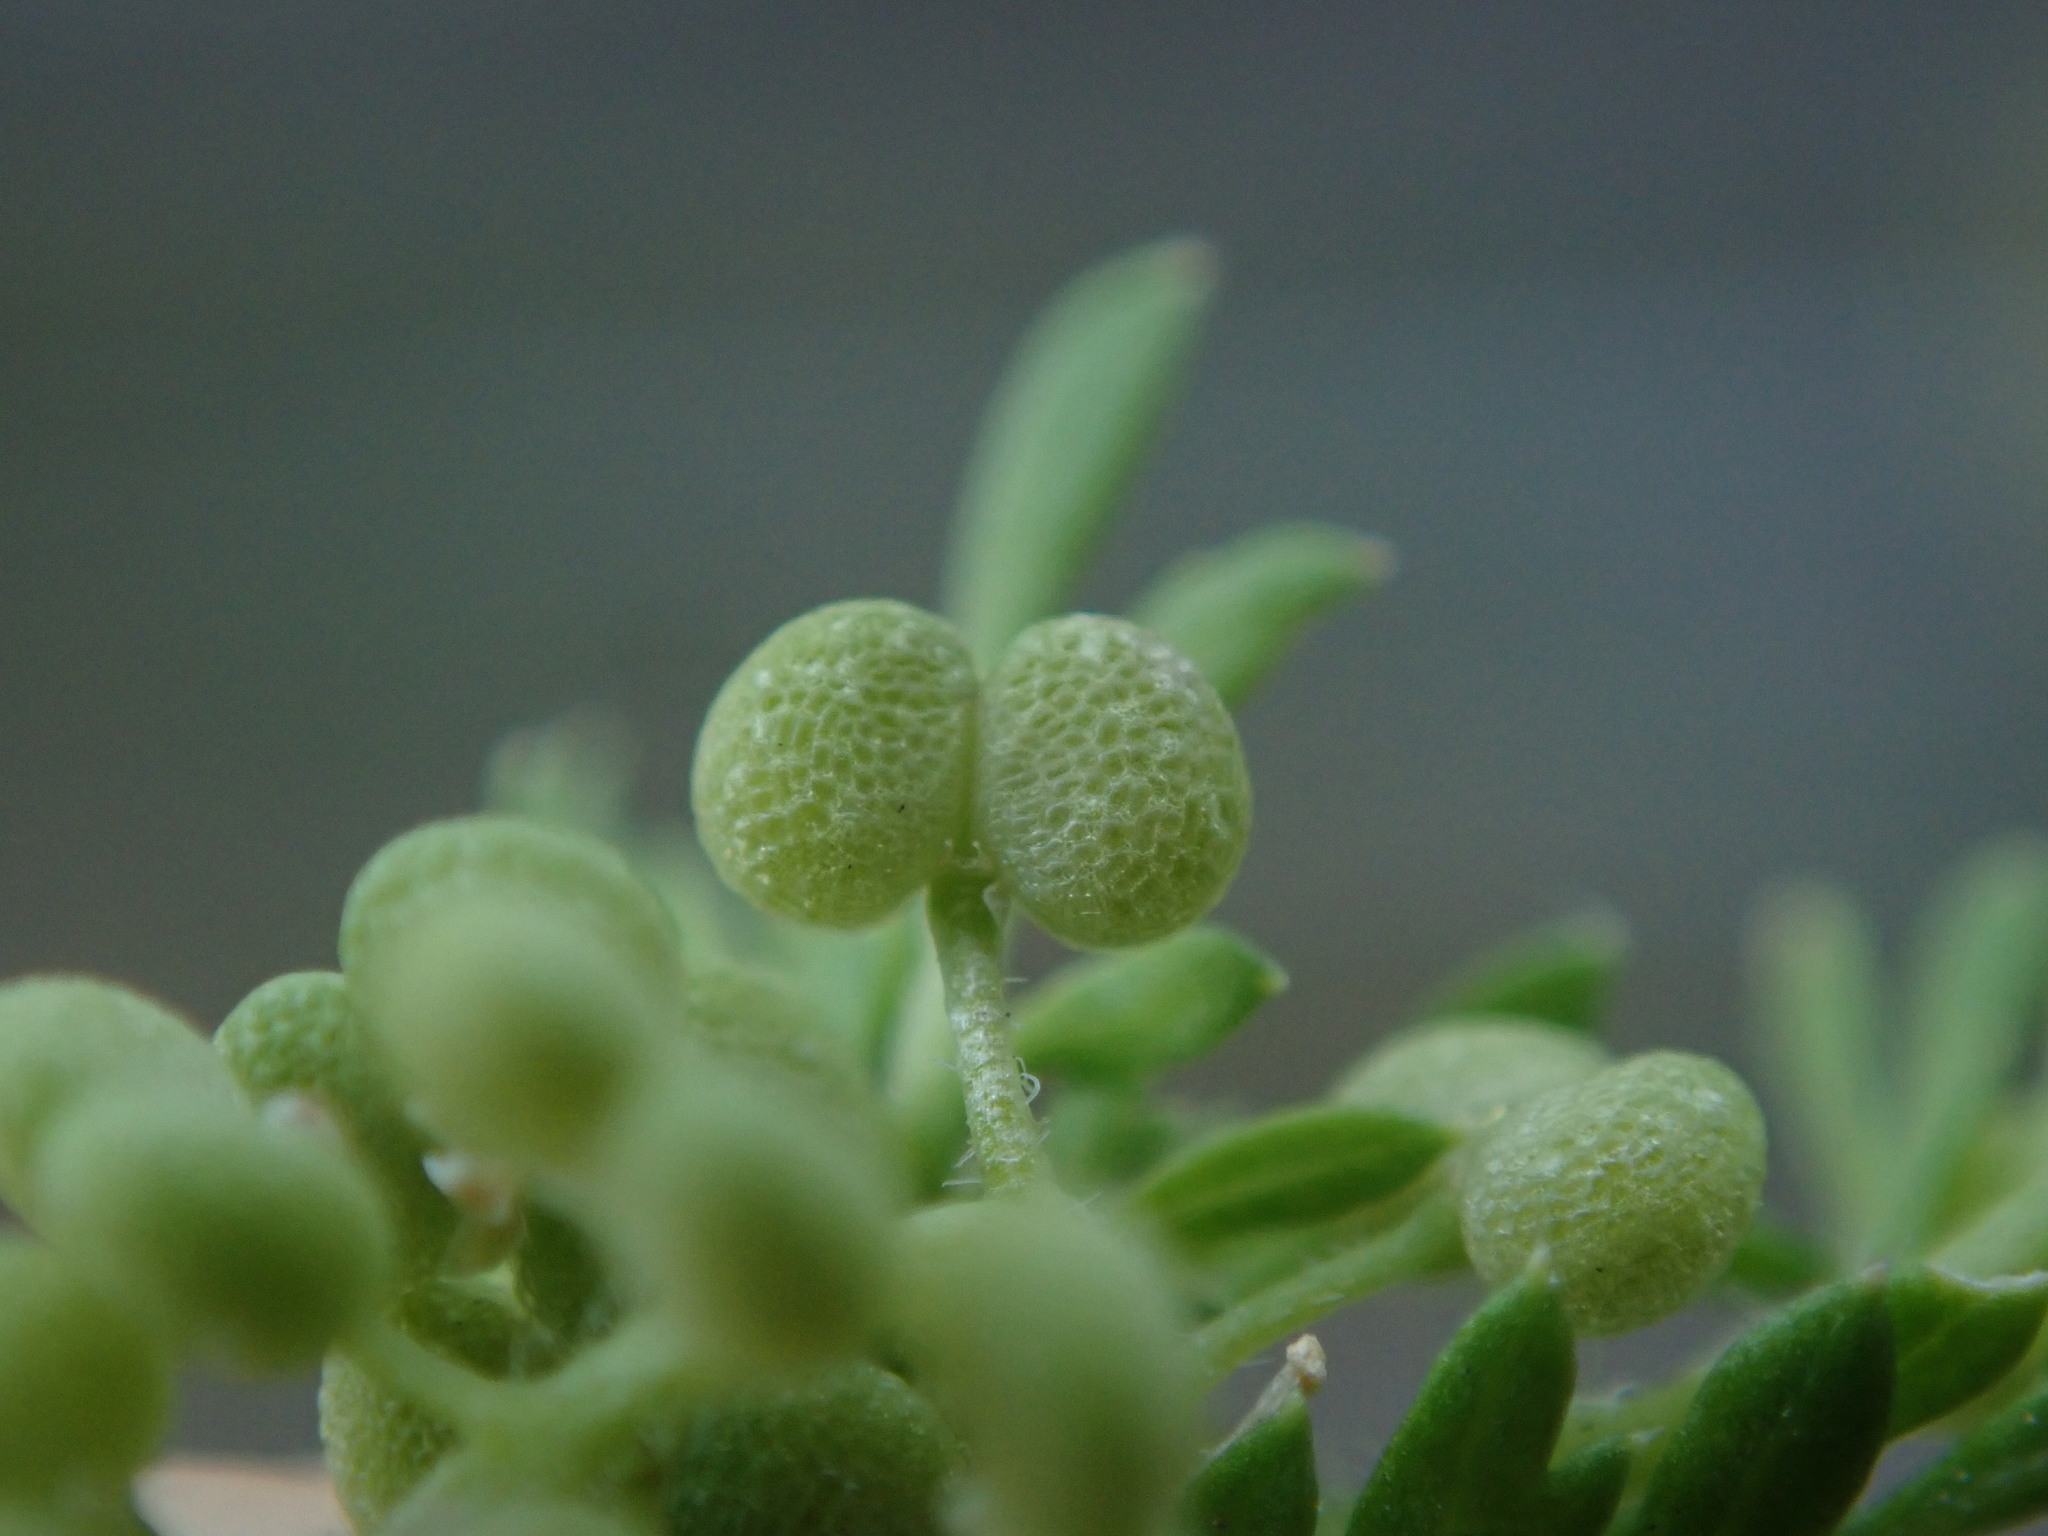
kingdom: Plantae
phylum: Tracheophyta
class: Magnoliopsida
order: Brassicales
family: Brassicaceae
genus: Lepidium
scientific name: Lepidium didymum
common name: Lesser swinecress
